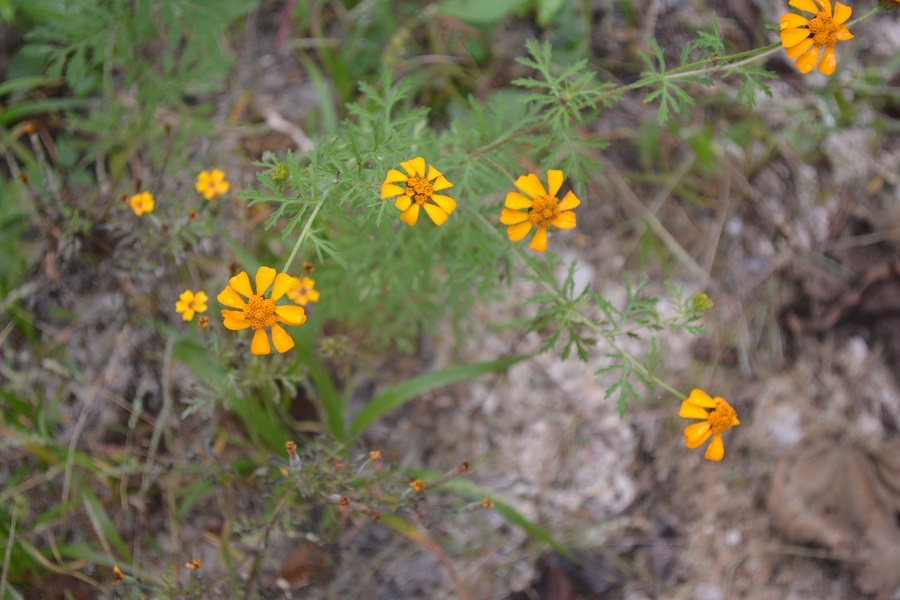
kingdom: Plantae
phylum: Tracheophyta
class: Magnoliopsida
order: Asterales
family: Asteraceae
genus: Dyssodia
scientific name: Dyssodia decipiens
